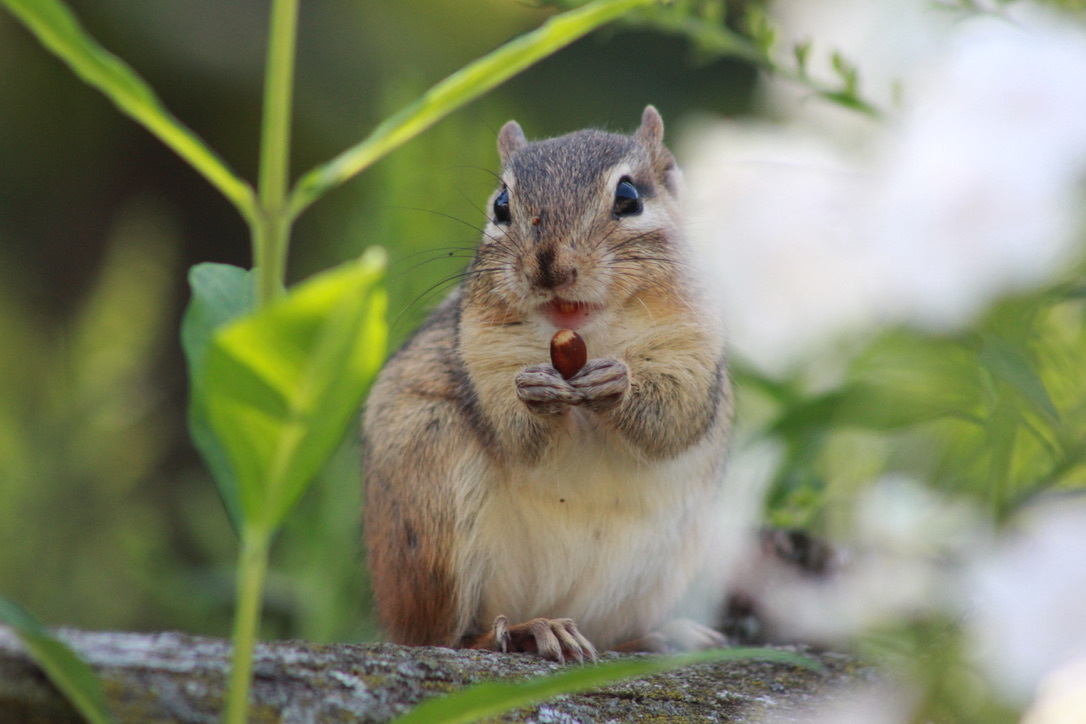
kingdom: Animalia
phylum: Chordata
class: Mammalia
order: Rodentia
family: Sciuridae
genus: Tamias
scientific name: Tamias striatus
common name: Eastern chipmunk
